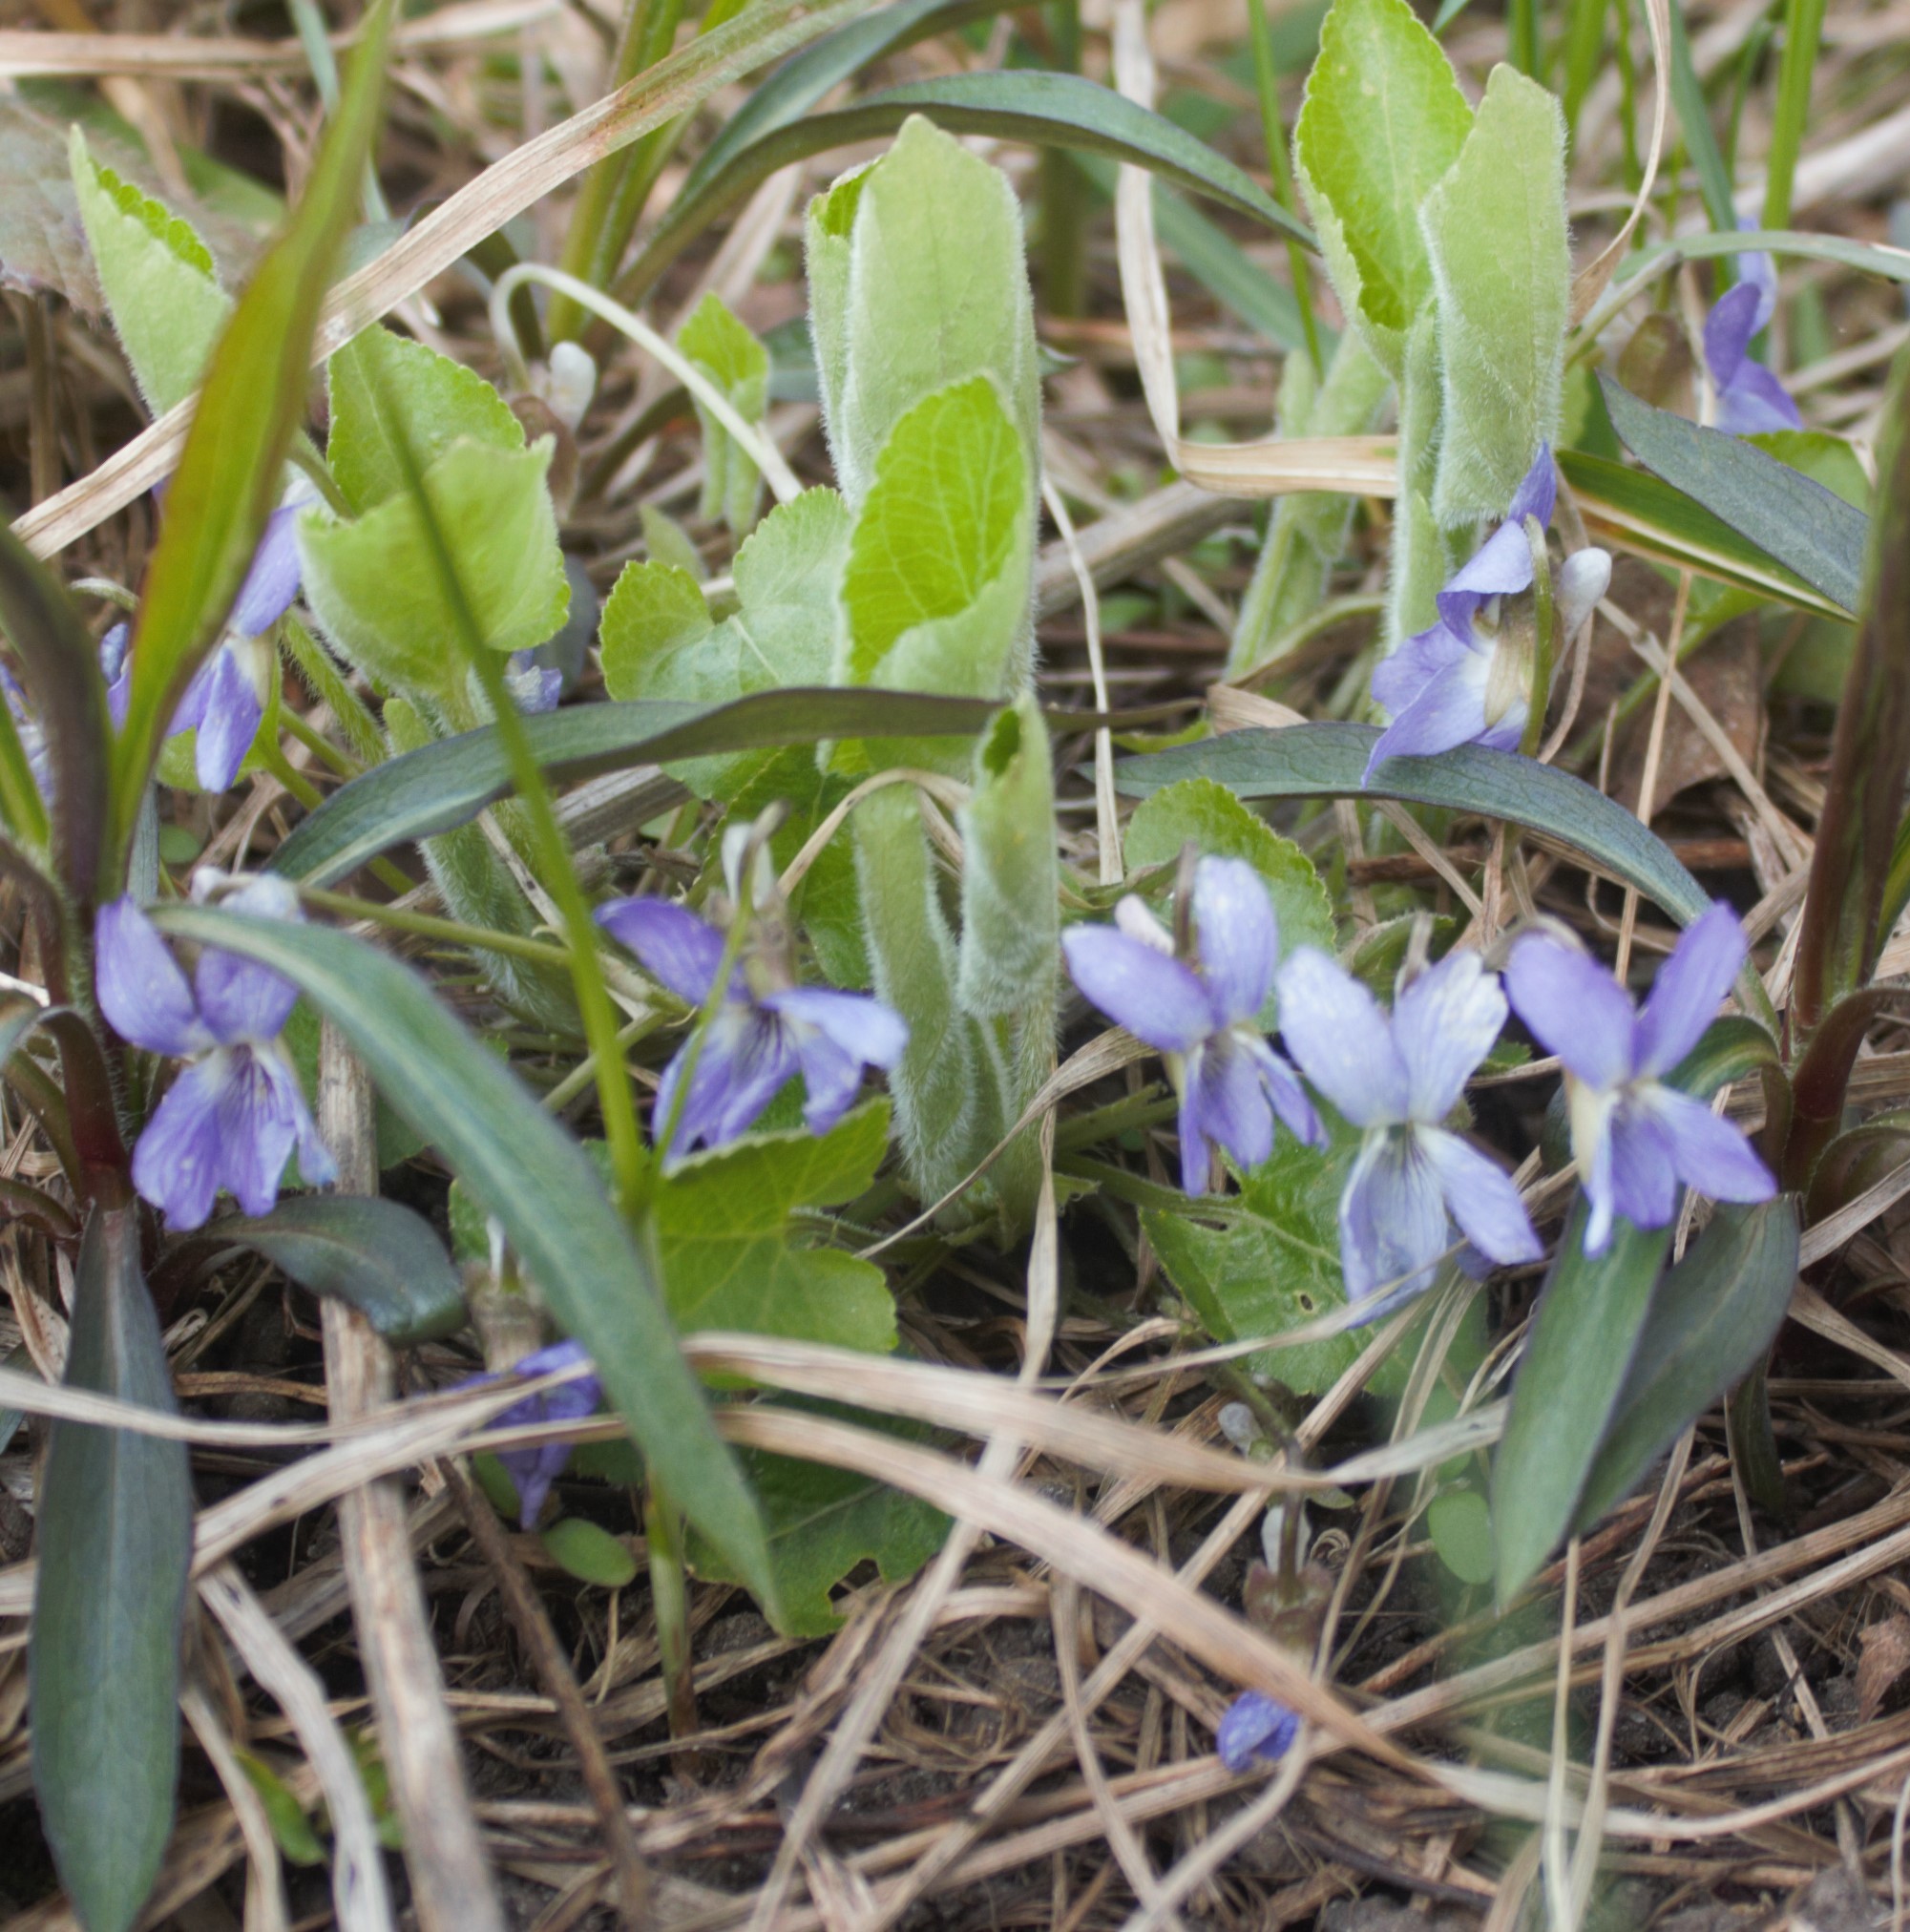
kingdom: Plantae
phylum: Tracheophyta
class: Magnoliopsida
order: Malpighiales
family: Violaceae
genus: Viola
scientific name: Viola hirta
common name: Hairy violet
